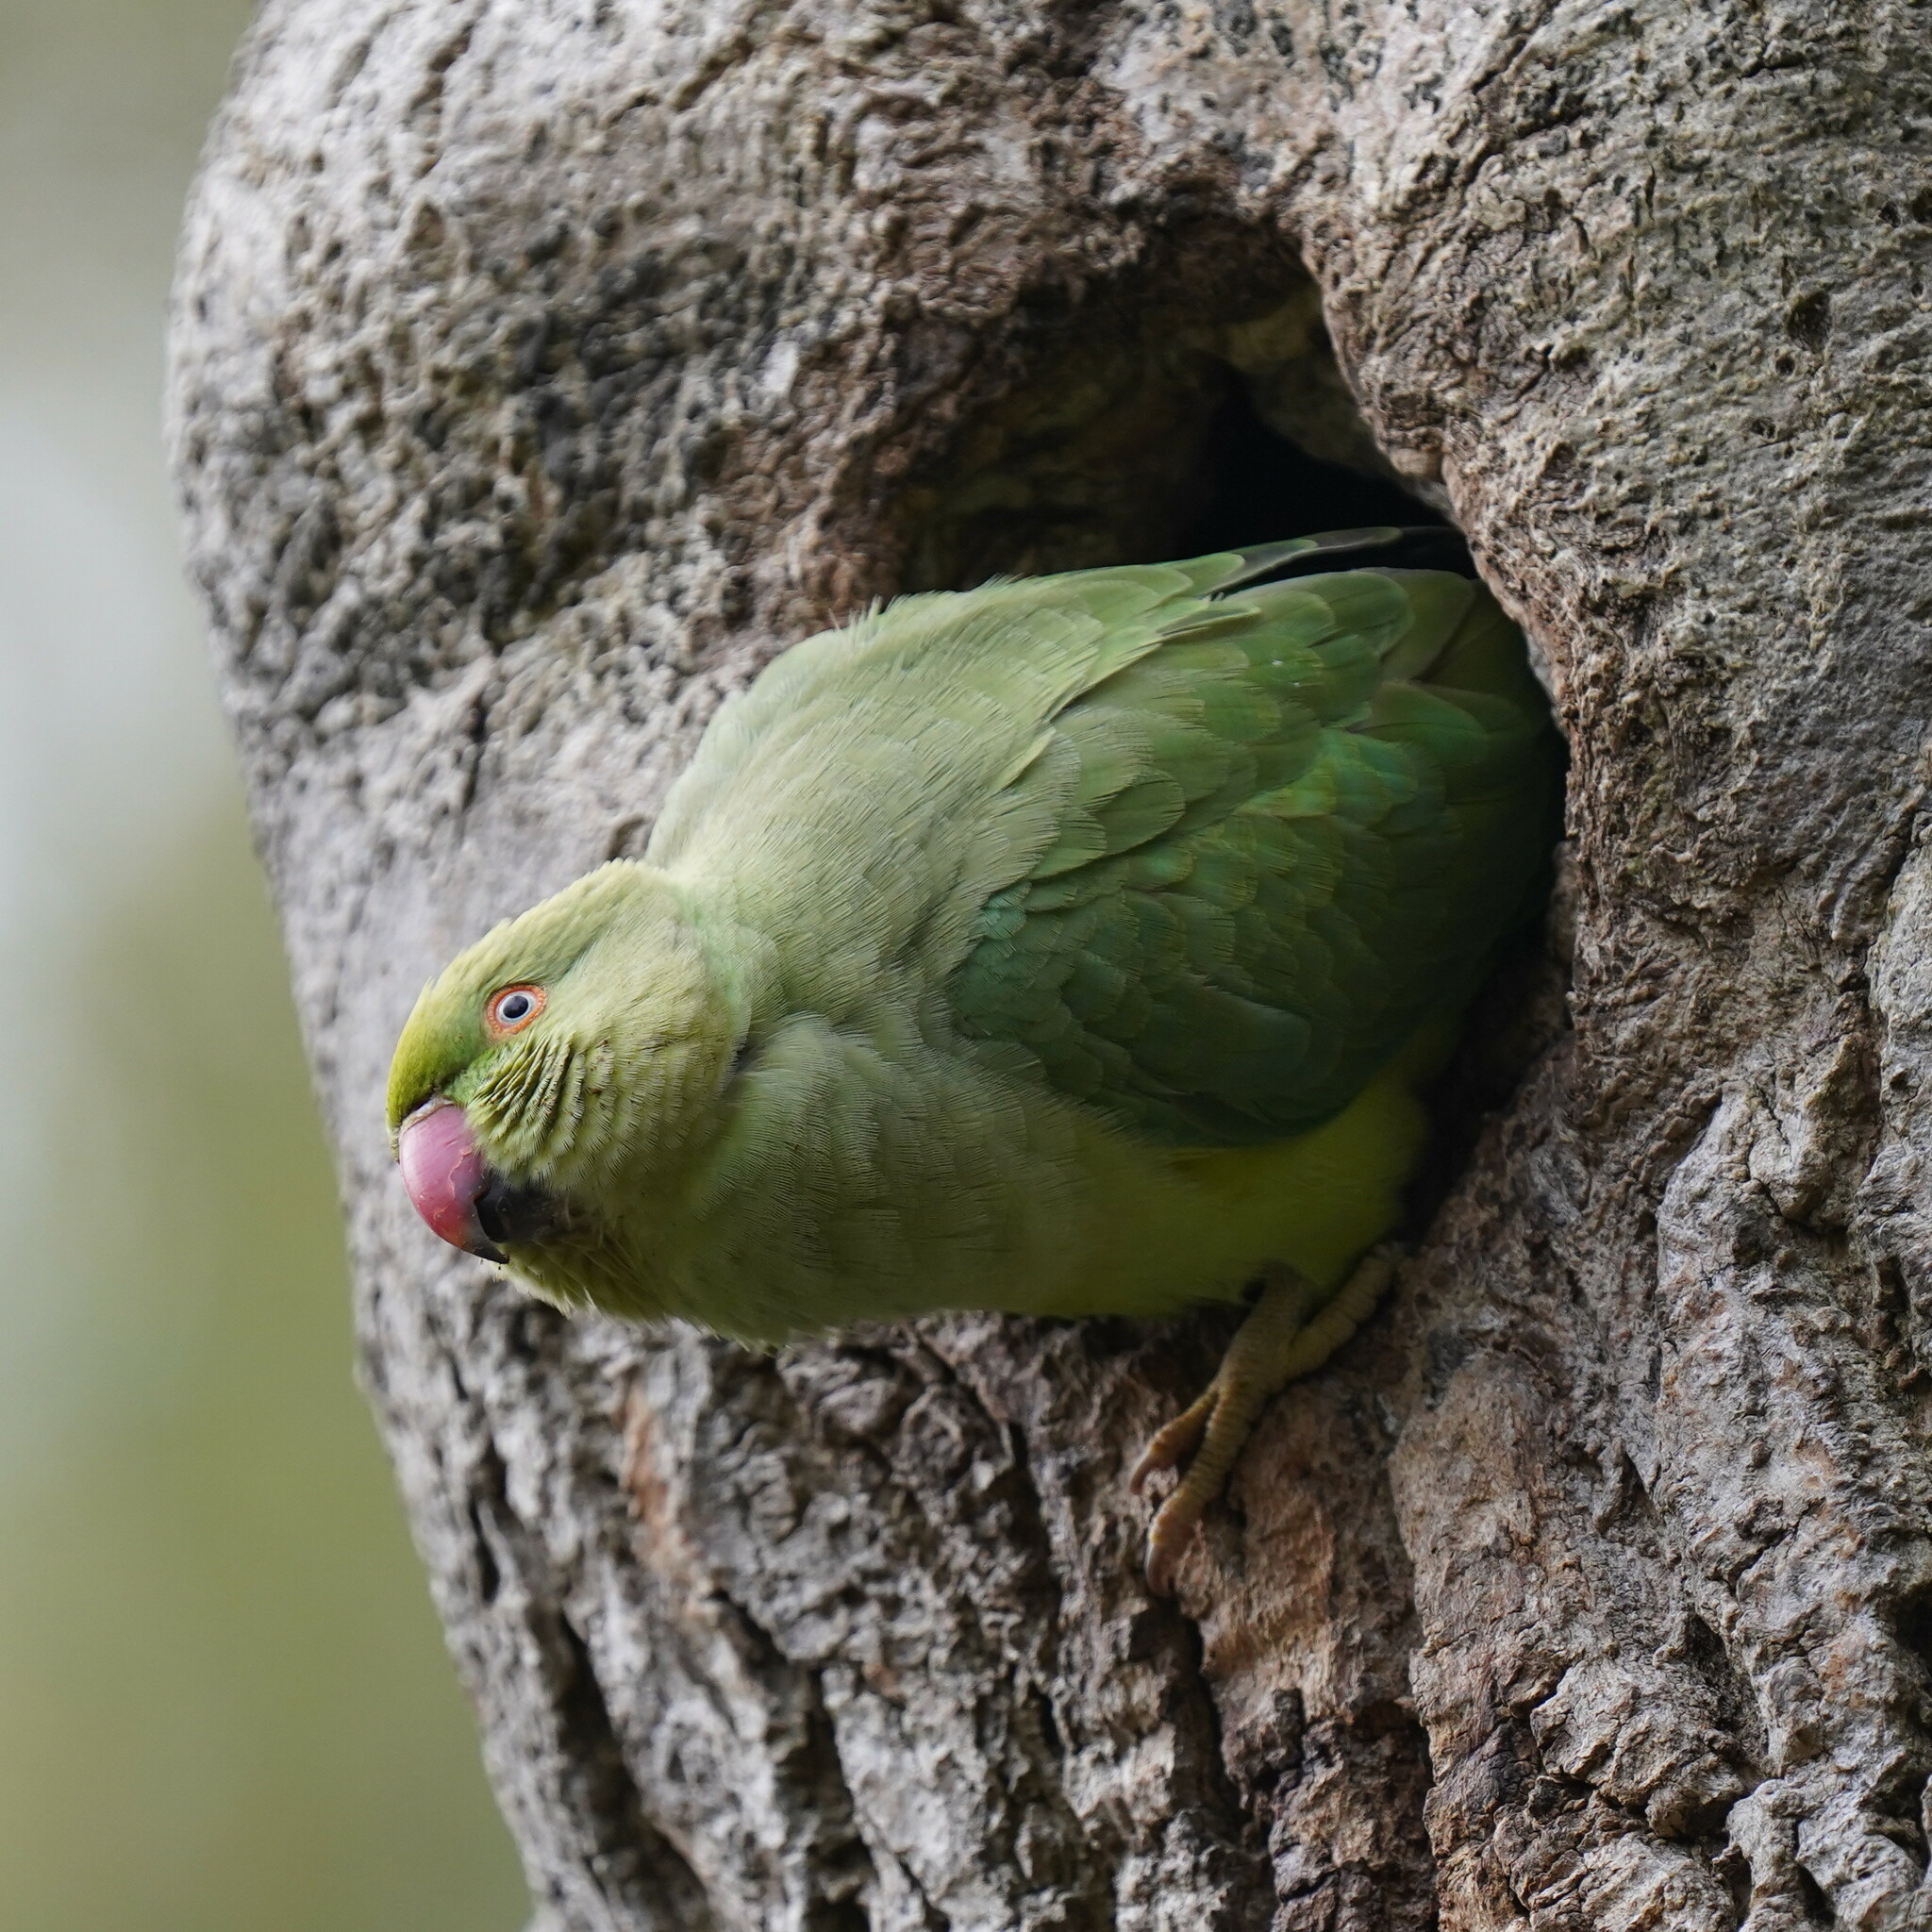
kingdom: Animalia
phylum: Chordata
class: Aves
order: Psittaciformes
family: Psittacidae
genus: Psittacula
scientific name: Psittacula krameri
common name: Rose-ringed parakeet
